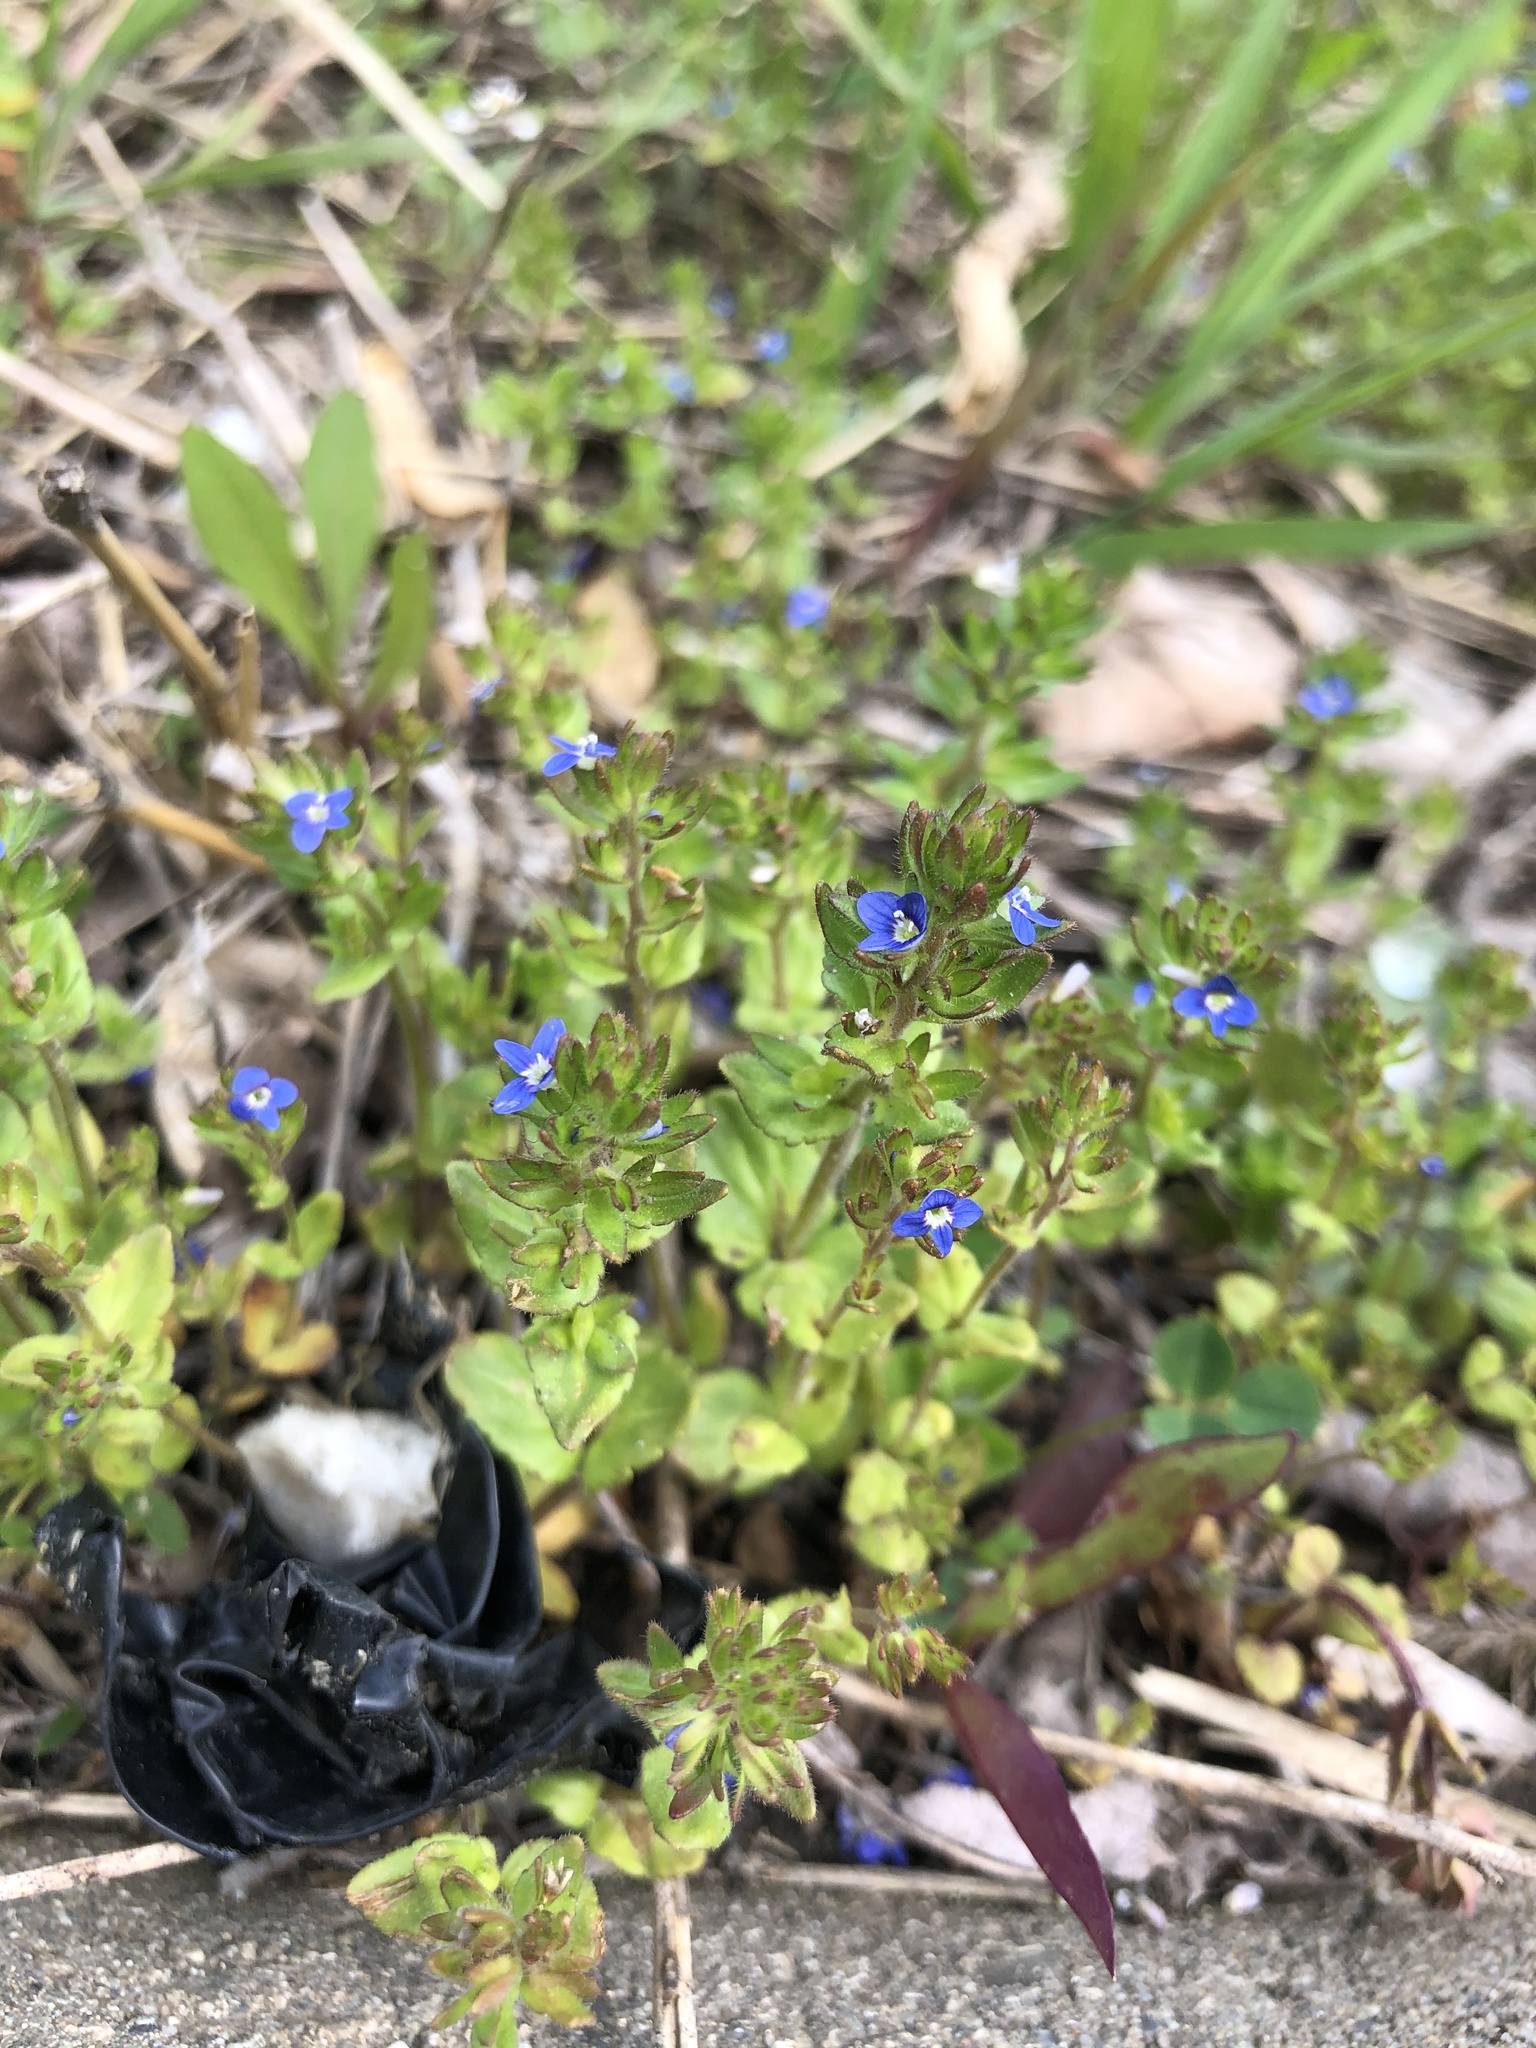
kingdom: Plantae
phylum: Tracheophyta
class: Magnoliopsida
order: Lamiales
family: Plantaginaceae
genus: Veronica
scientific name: Veronica arvensis
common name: Corn speedwell
